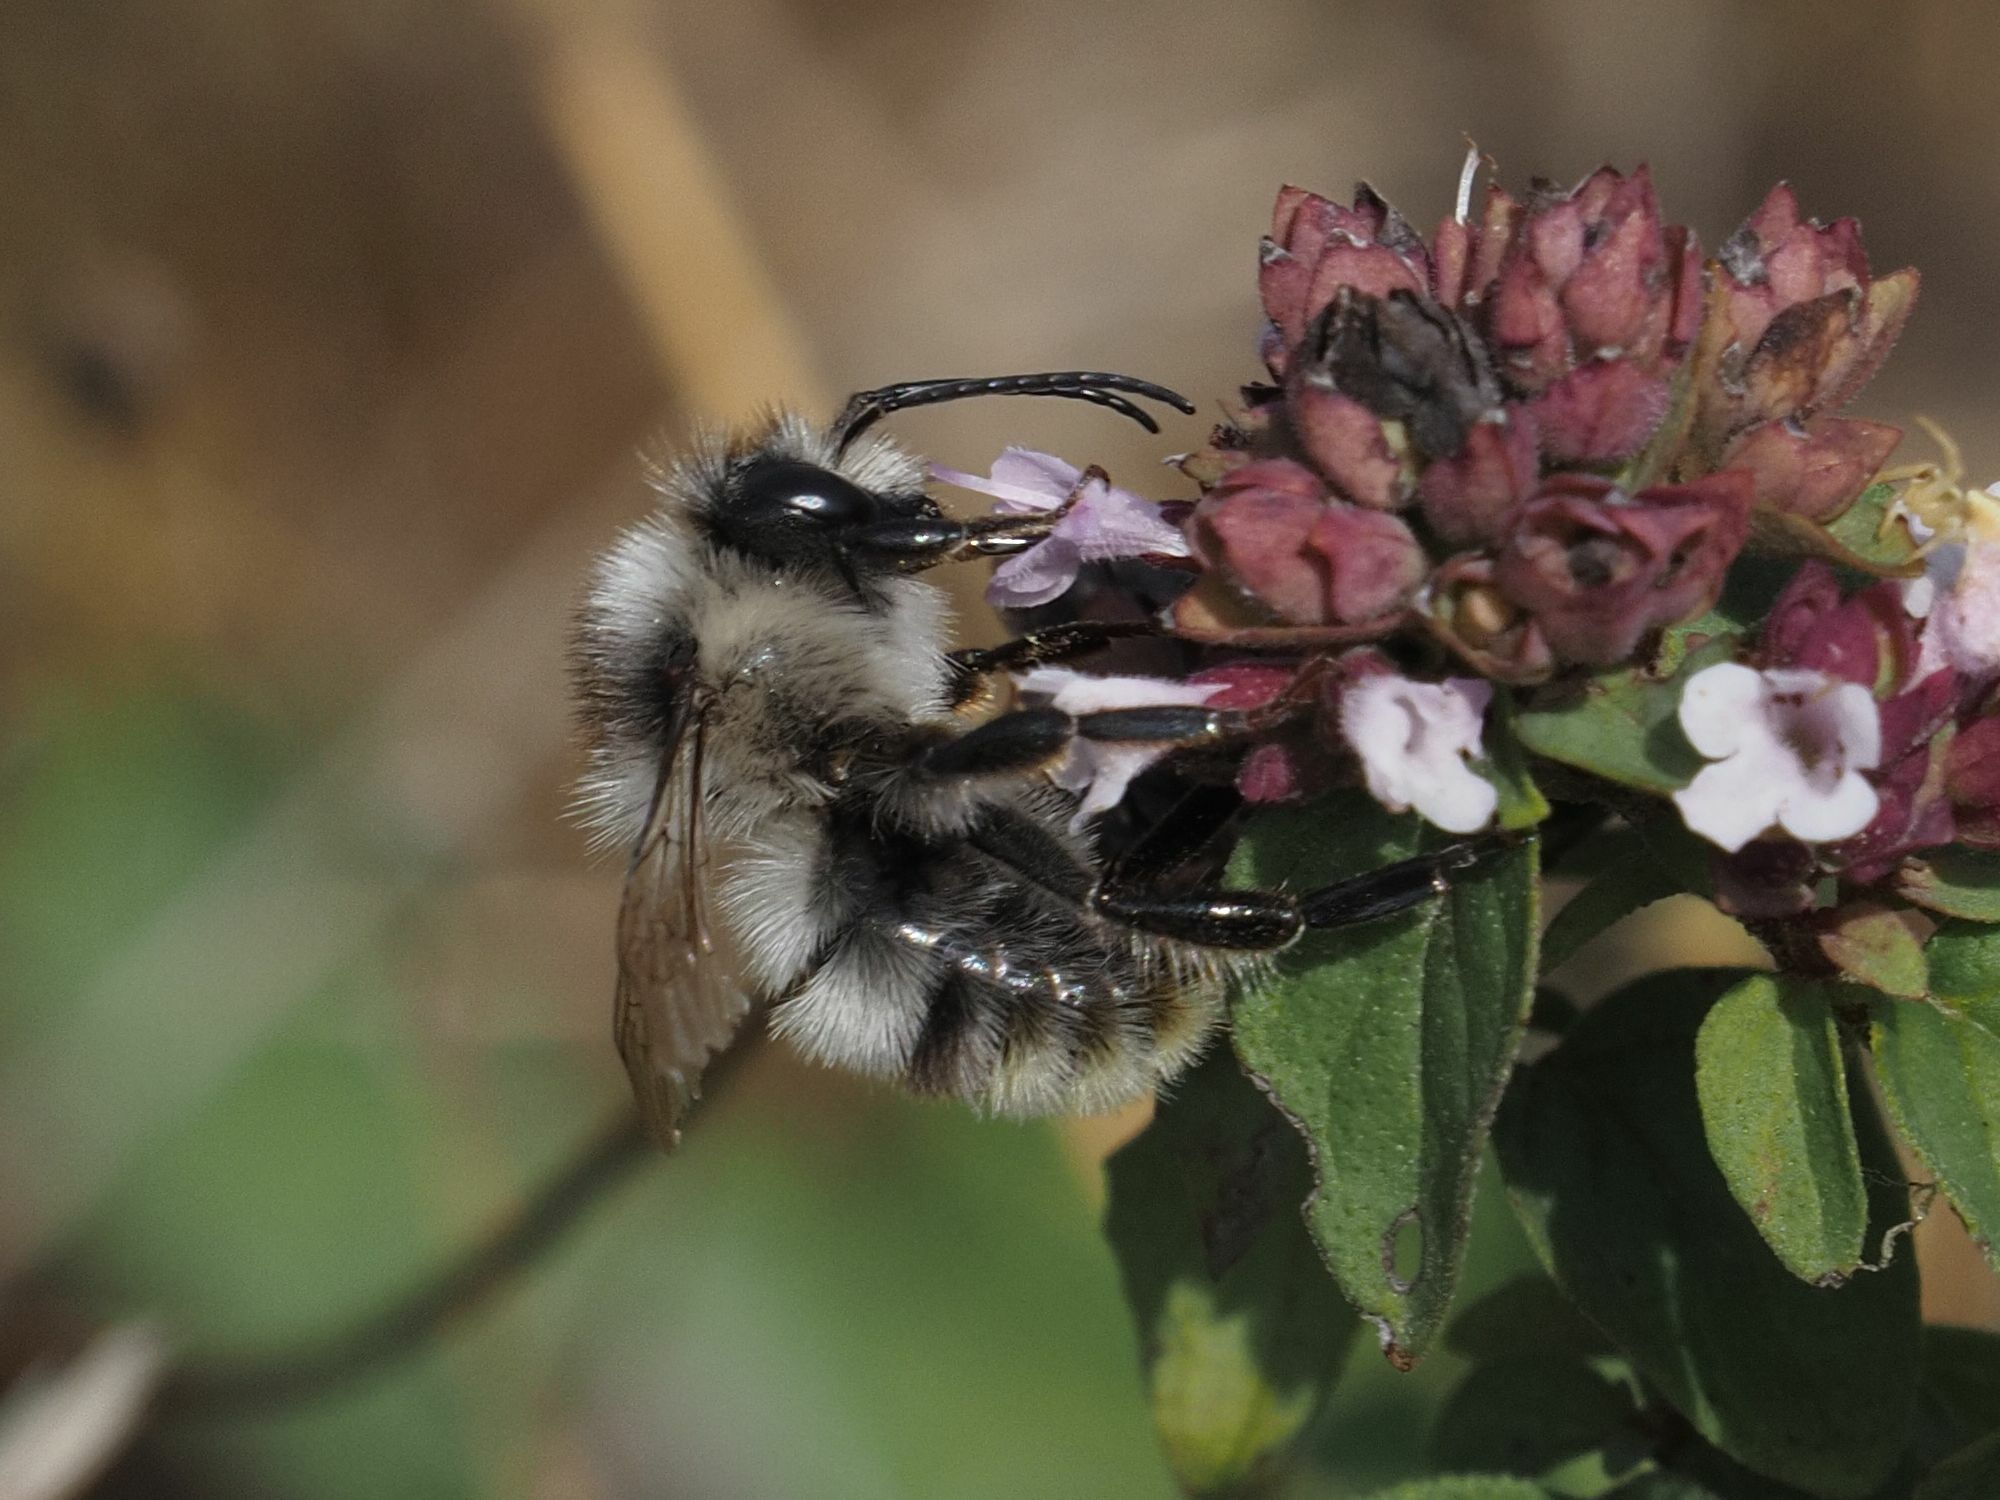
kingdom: Animalia
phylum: Arthropoda
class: Insecta
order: Hymenoptera
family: Apidae
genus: Bombus
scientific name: Bombus sylvarum
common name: Shrill carder bee
